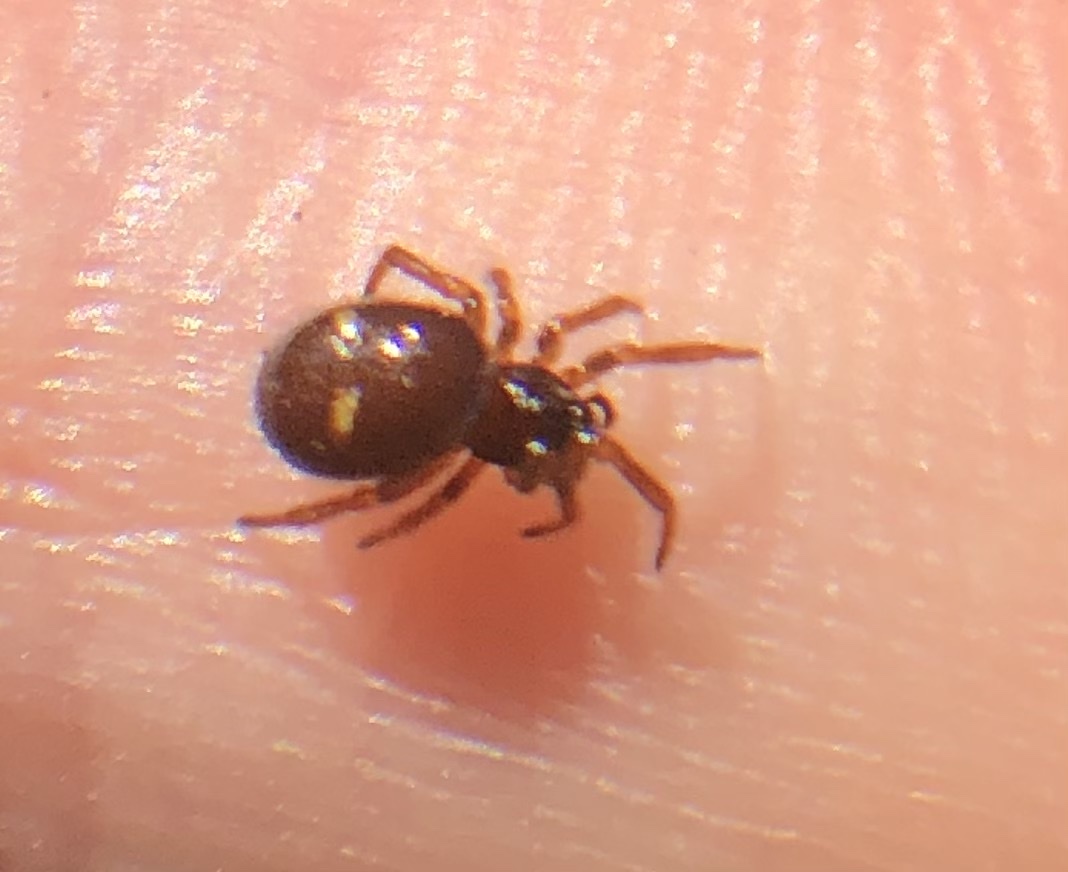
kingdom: Animalia
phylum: Arthropoda
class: Arachnida
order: Araneae
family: Theridiidae
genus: Asagena
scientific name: Asagena americana
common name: Two-spotted cobweb spider
